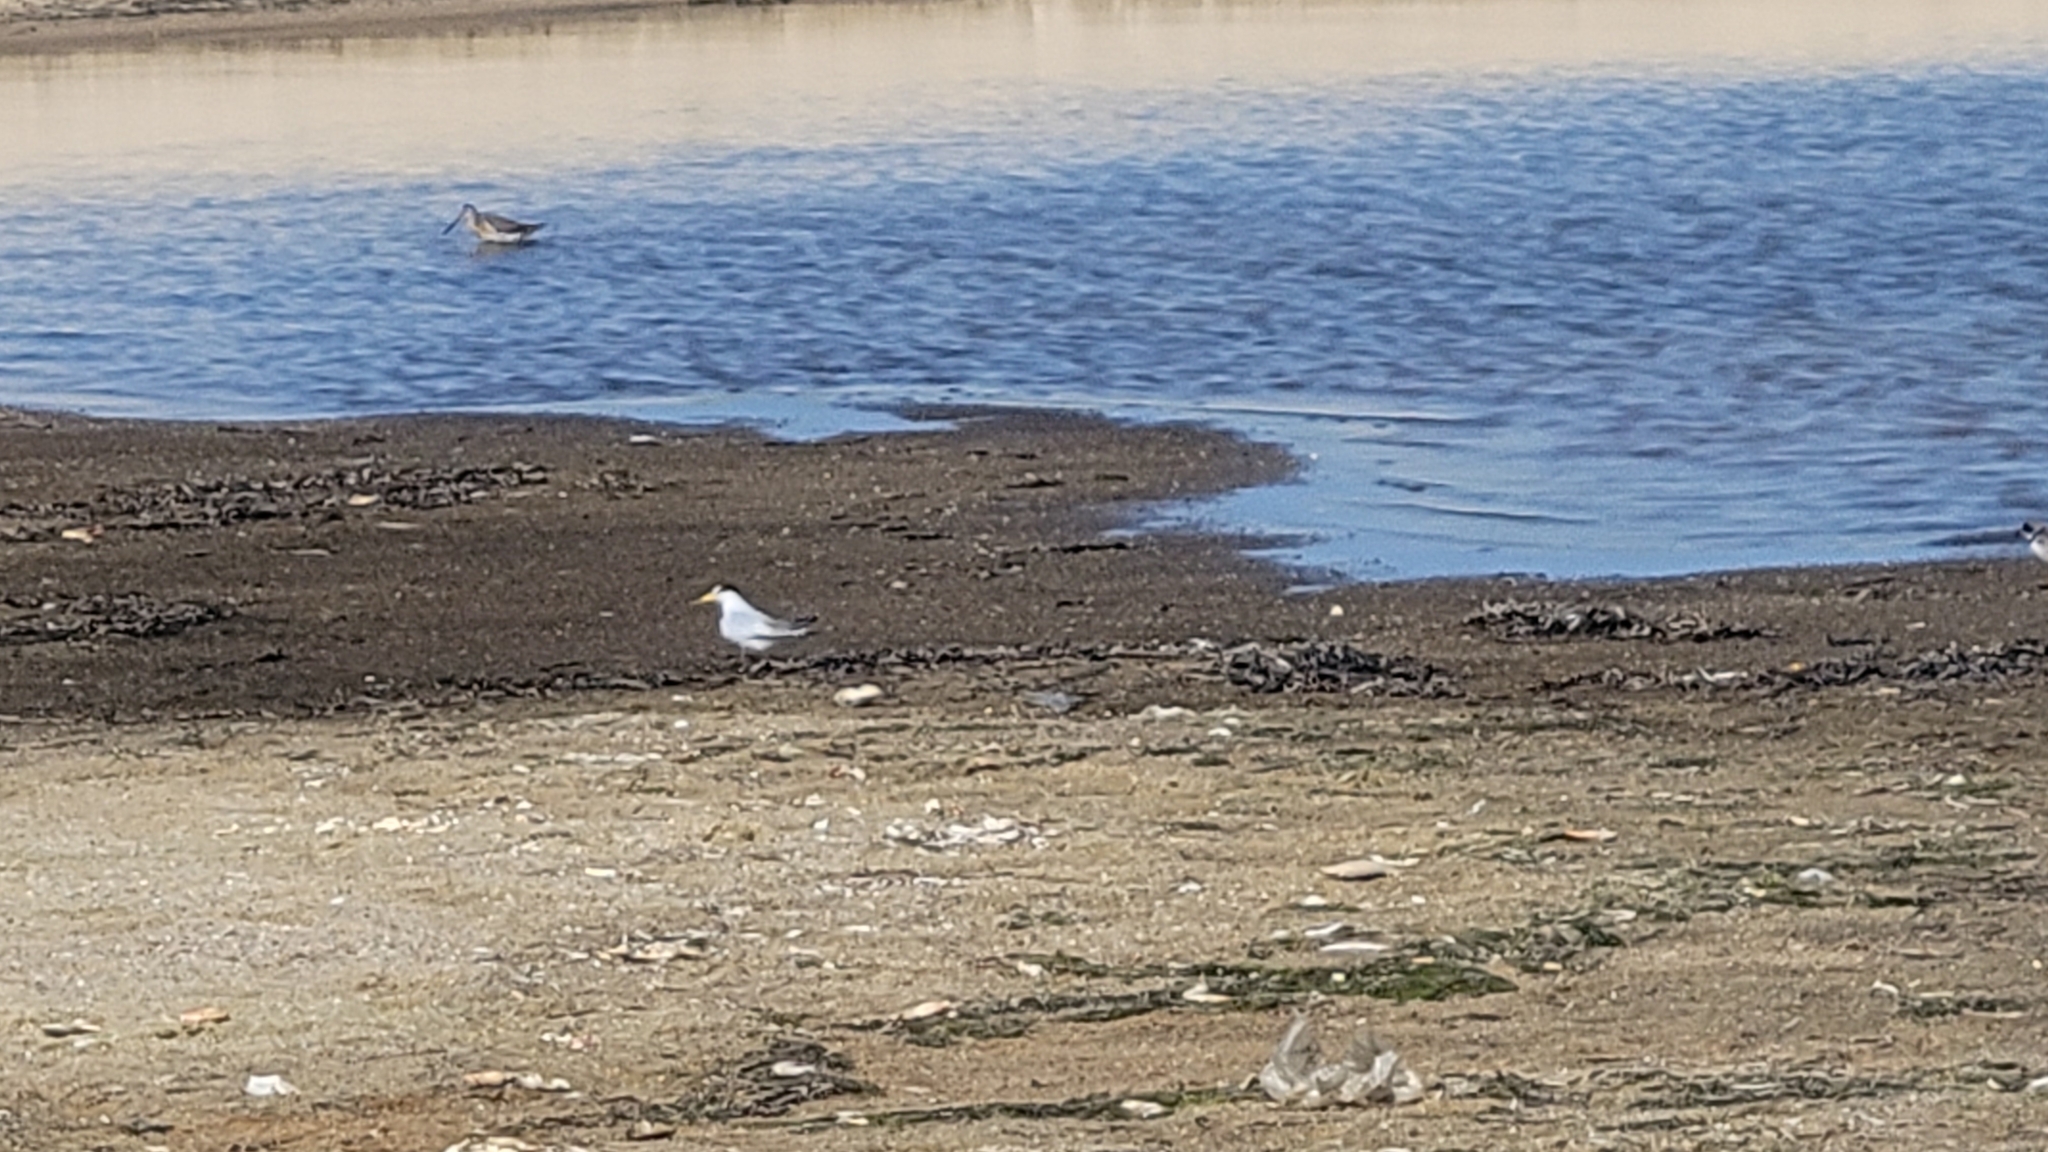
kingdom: Animalia
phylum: Chordata
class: Aves
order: Charadriiformes
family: Laridae
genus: Sternula
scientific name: Sternula antillarum
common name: Least tern
